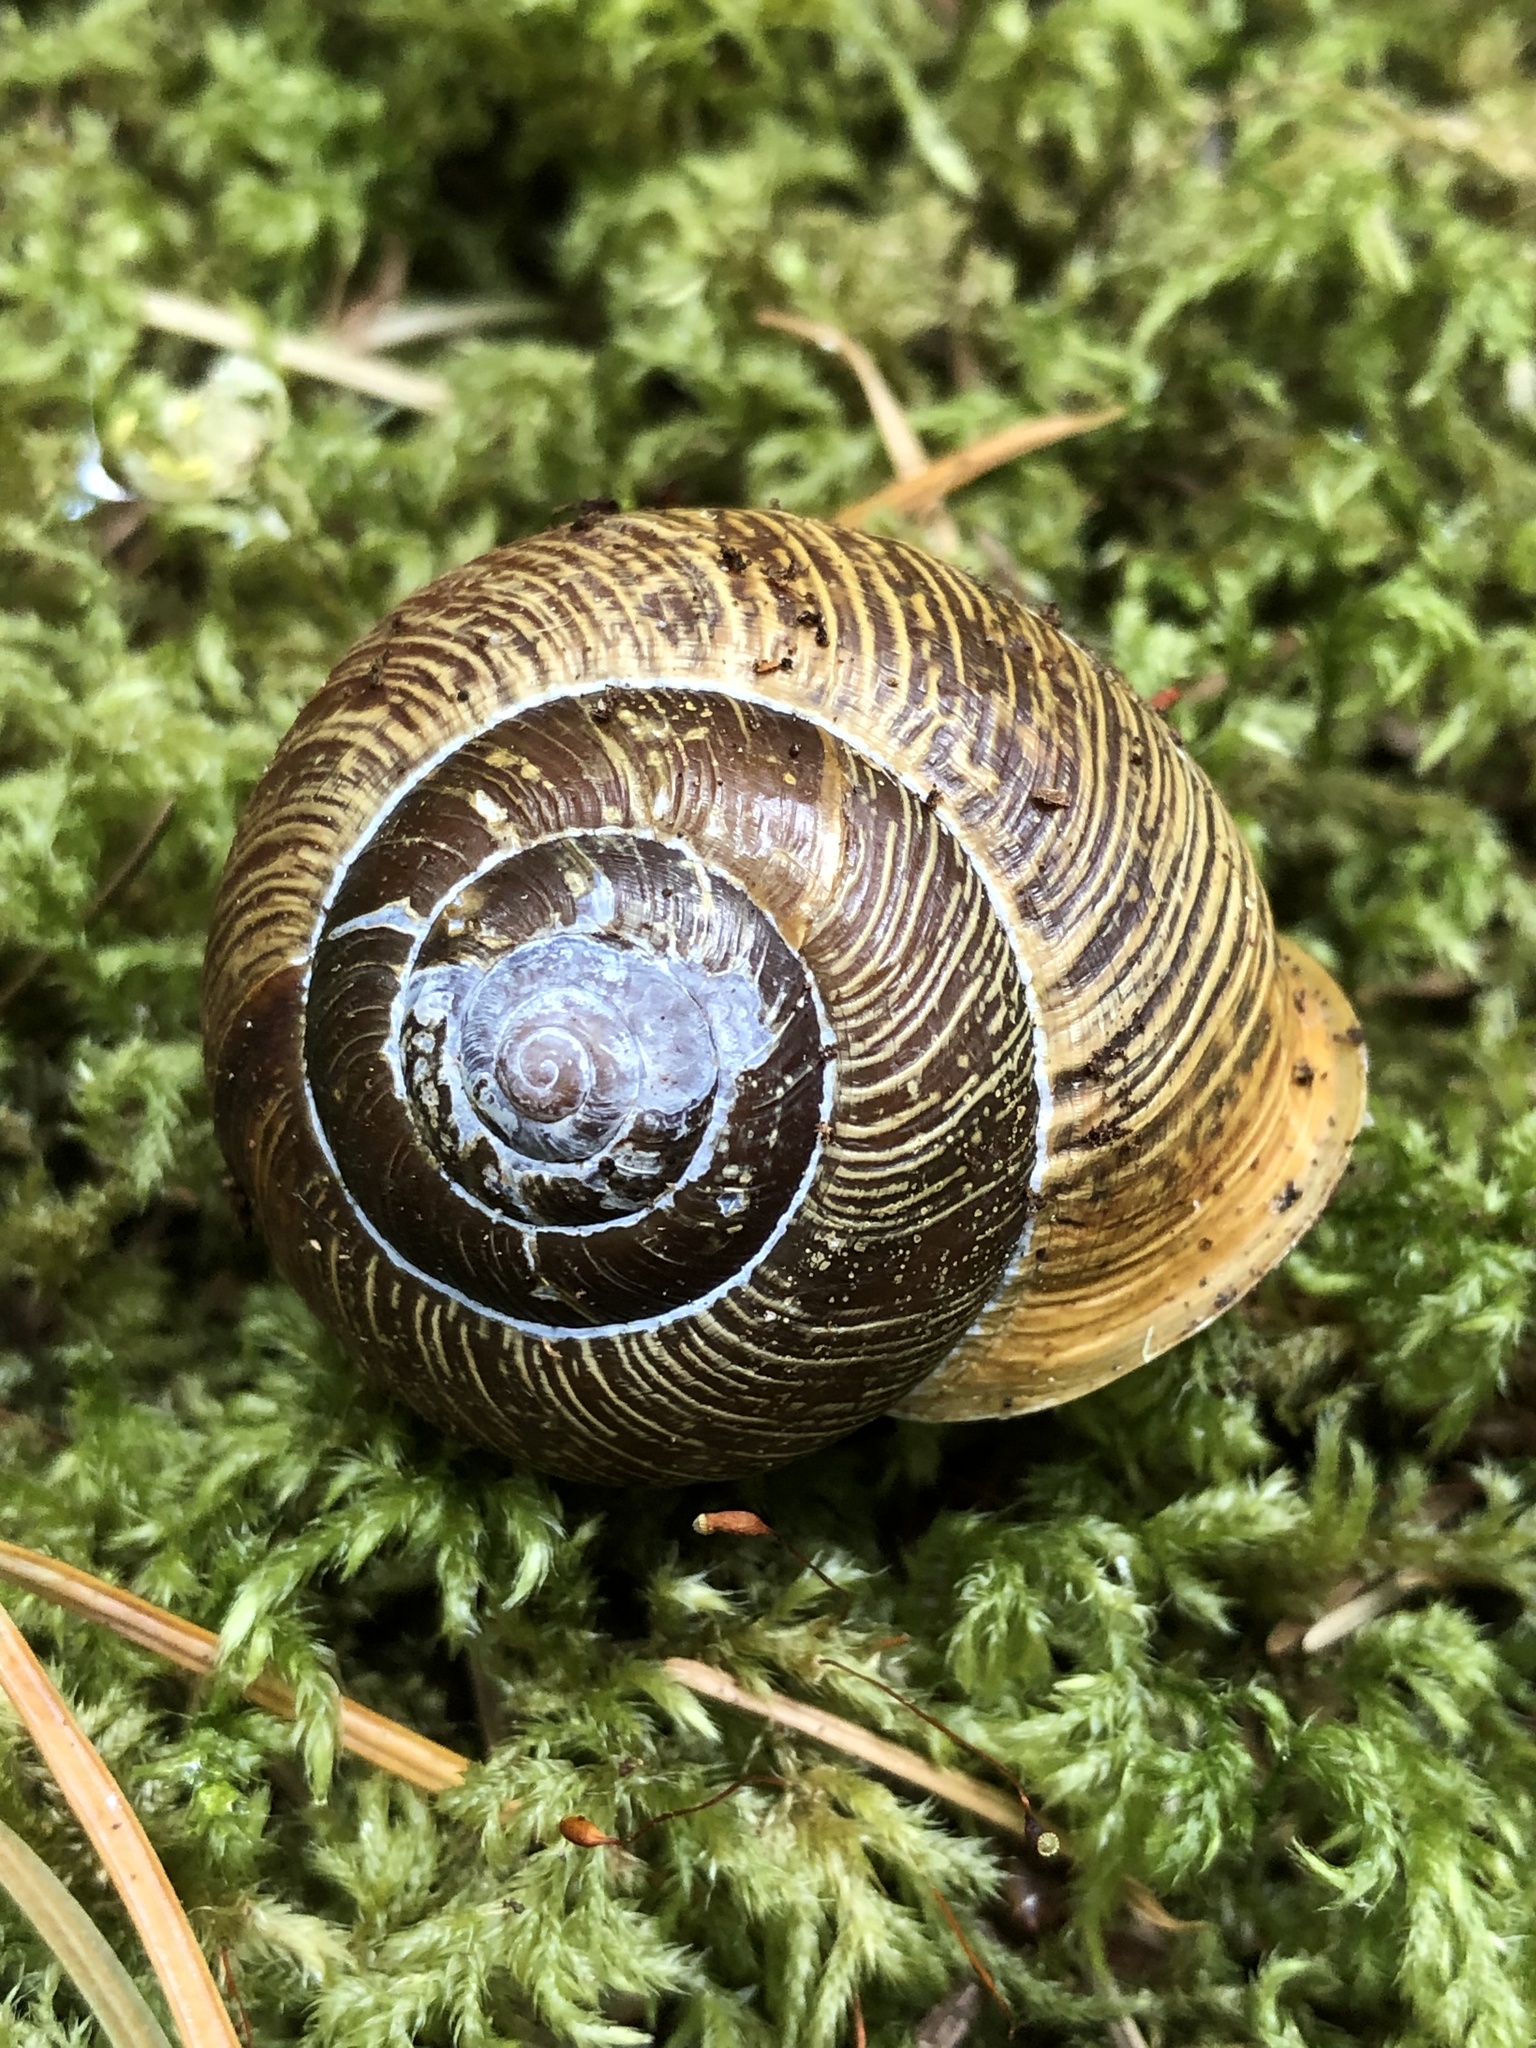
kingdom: Animalia
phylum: Mollusca
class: Gastropoda
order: Stylommatophora
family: Polygyridae
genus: Allogona
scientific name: Allogona townsendiana
